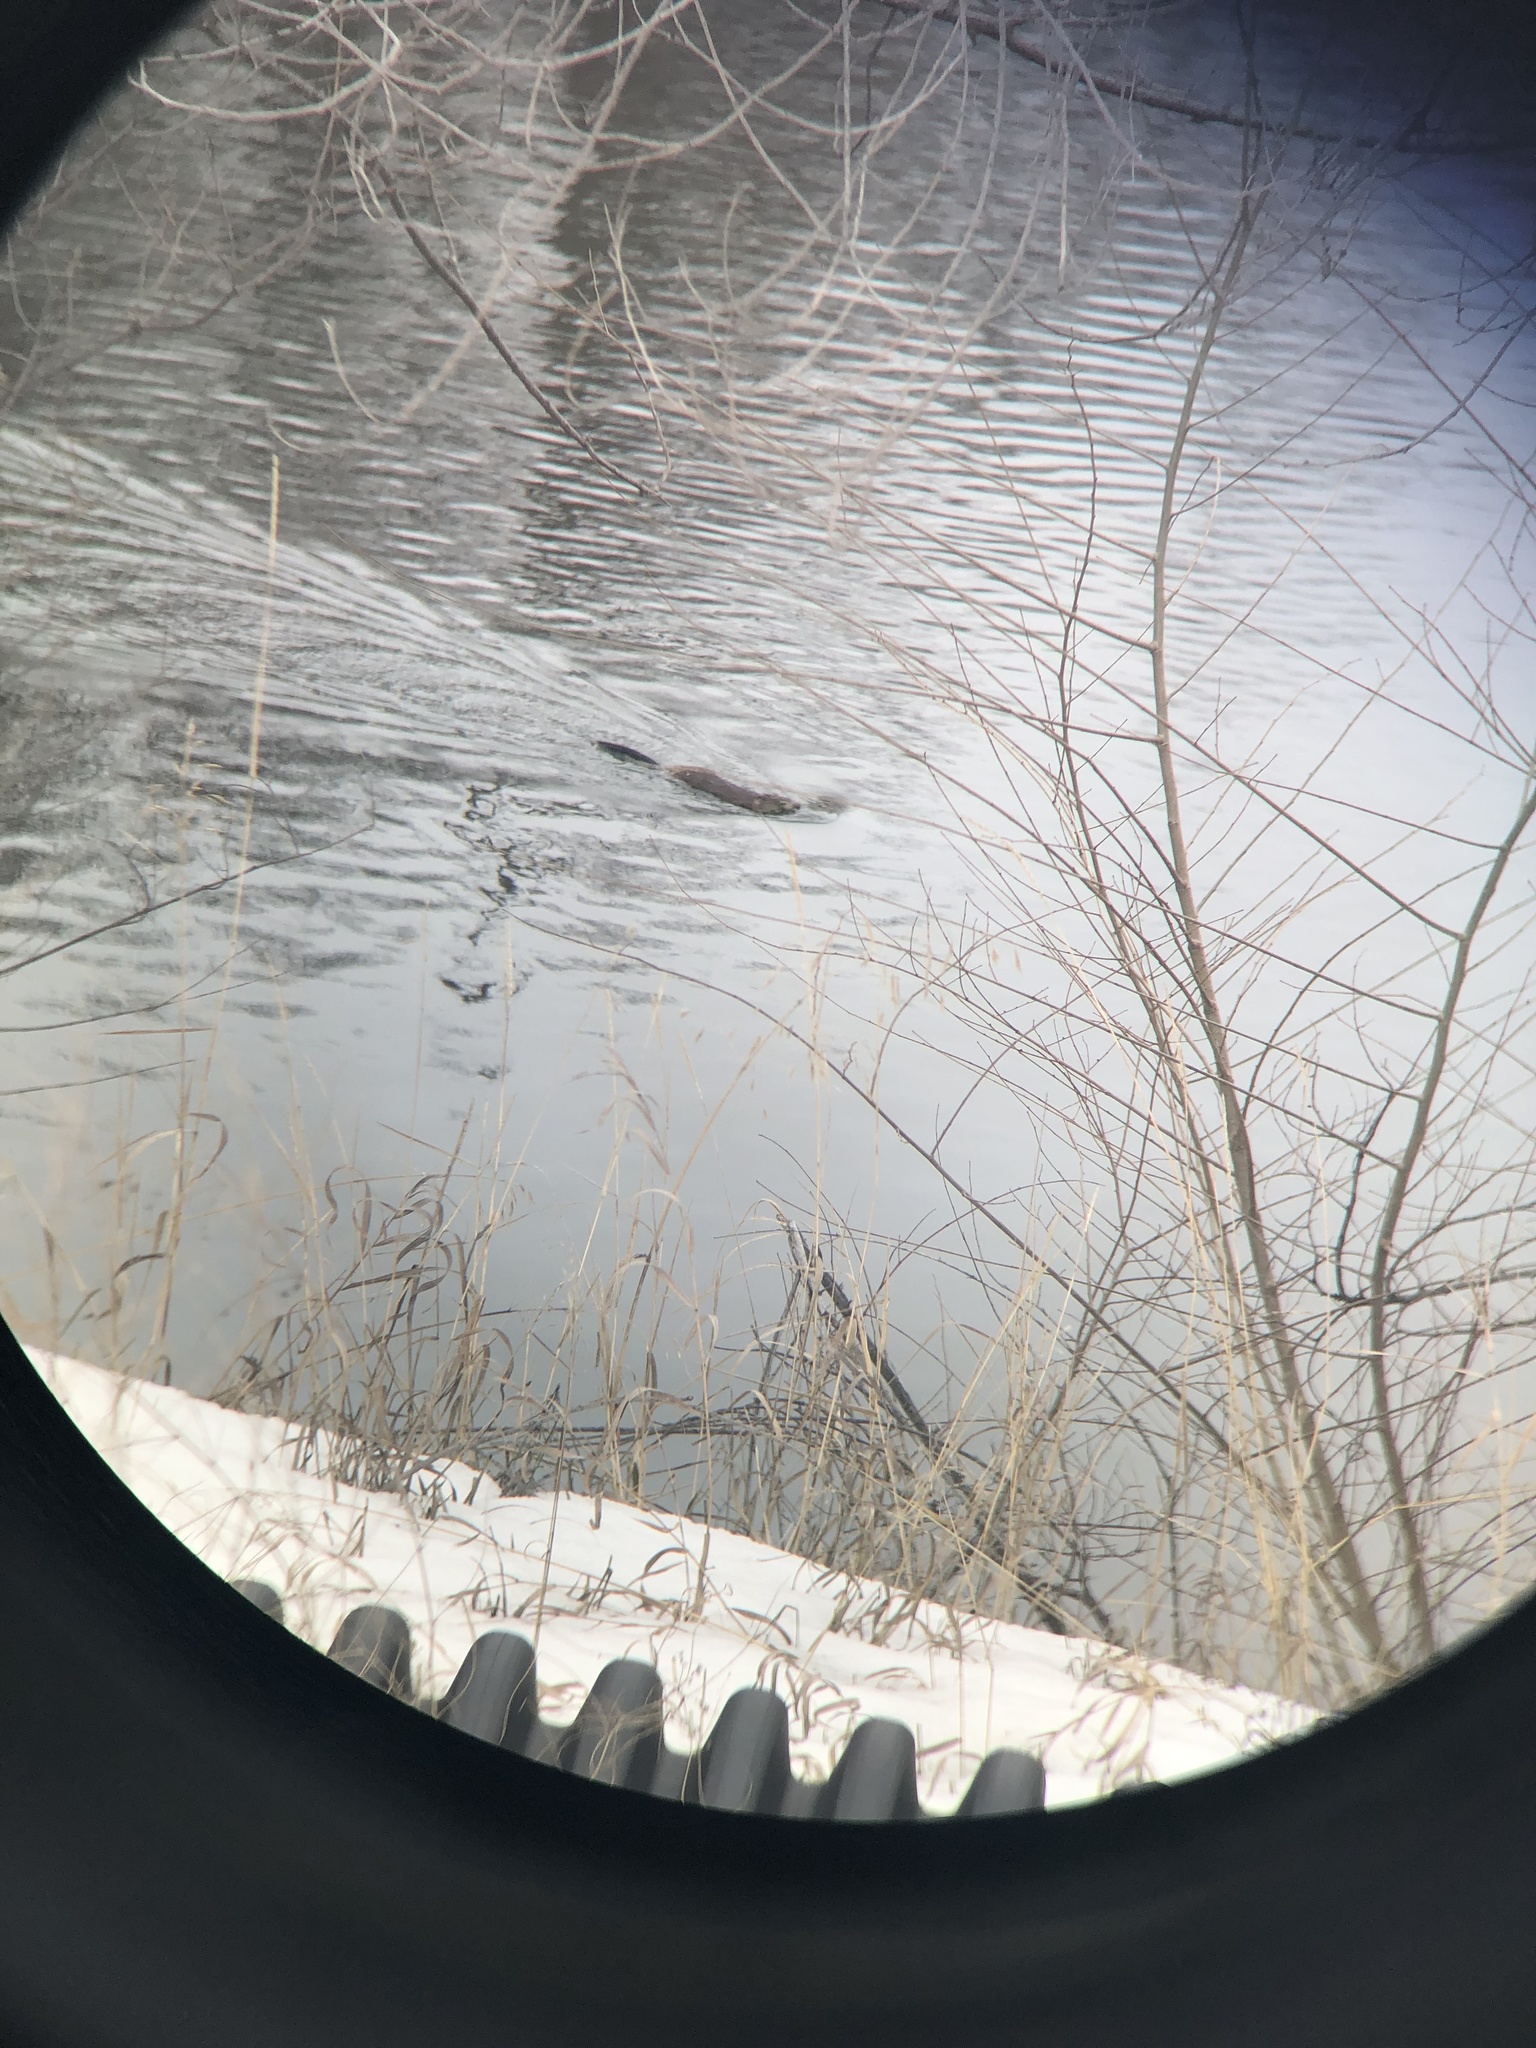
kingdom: Animalia
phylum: Chordata
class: Mammalia
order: Rodentia
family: Cricetidae
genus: Ondatra
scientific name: Ondatra zibethicus
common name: Muskrat
